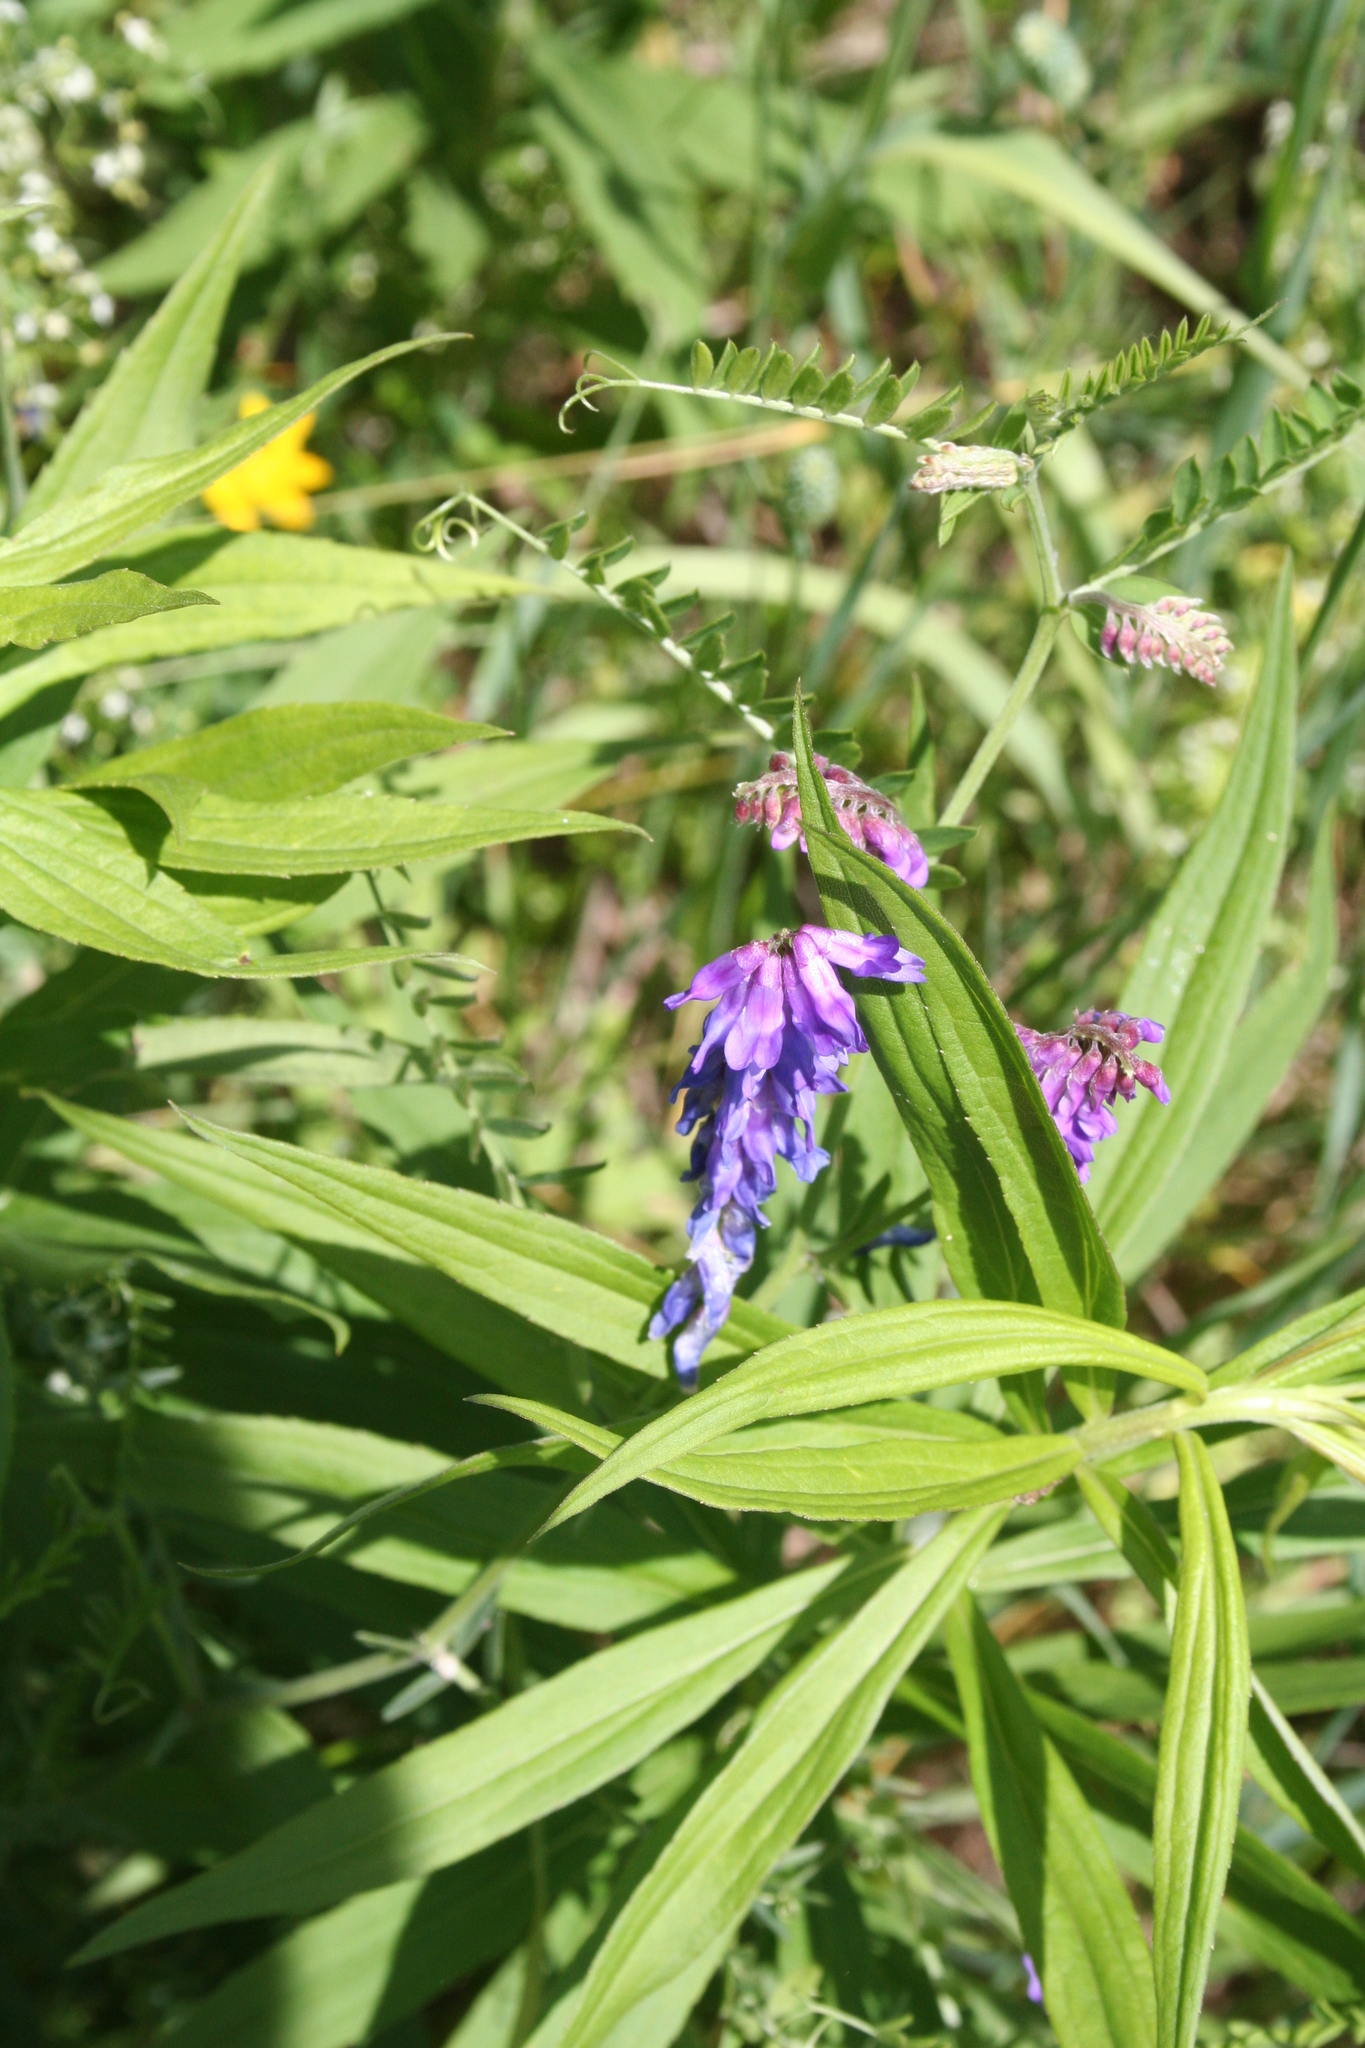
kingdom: Plantae
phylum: Tracheophyta
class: Magnoliopsida
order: Fabales
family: Fabaceae
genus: Vicia
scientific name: Vicia cracca
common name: Bird vetch
